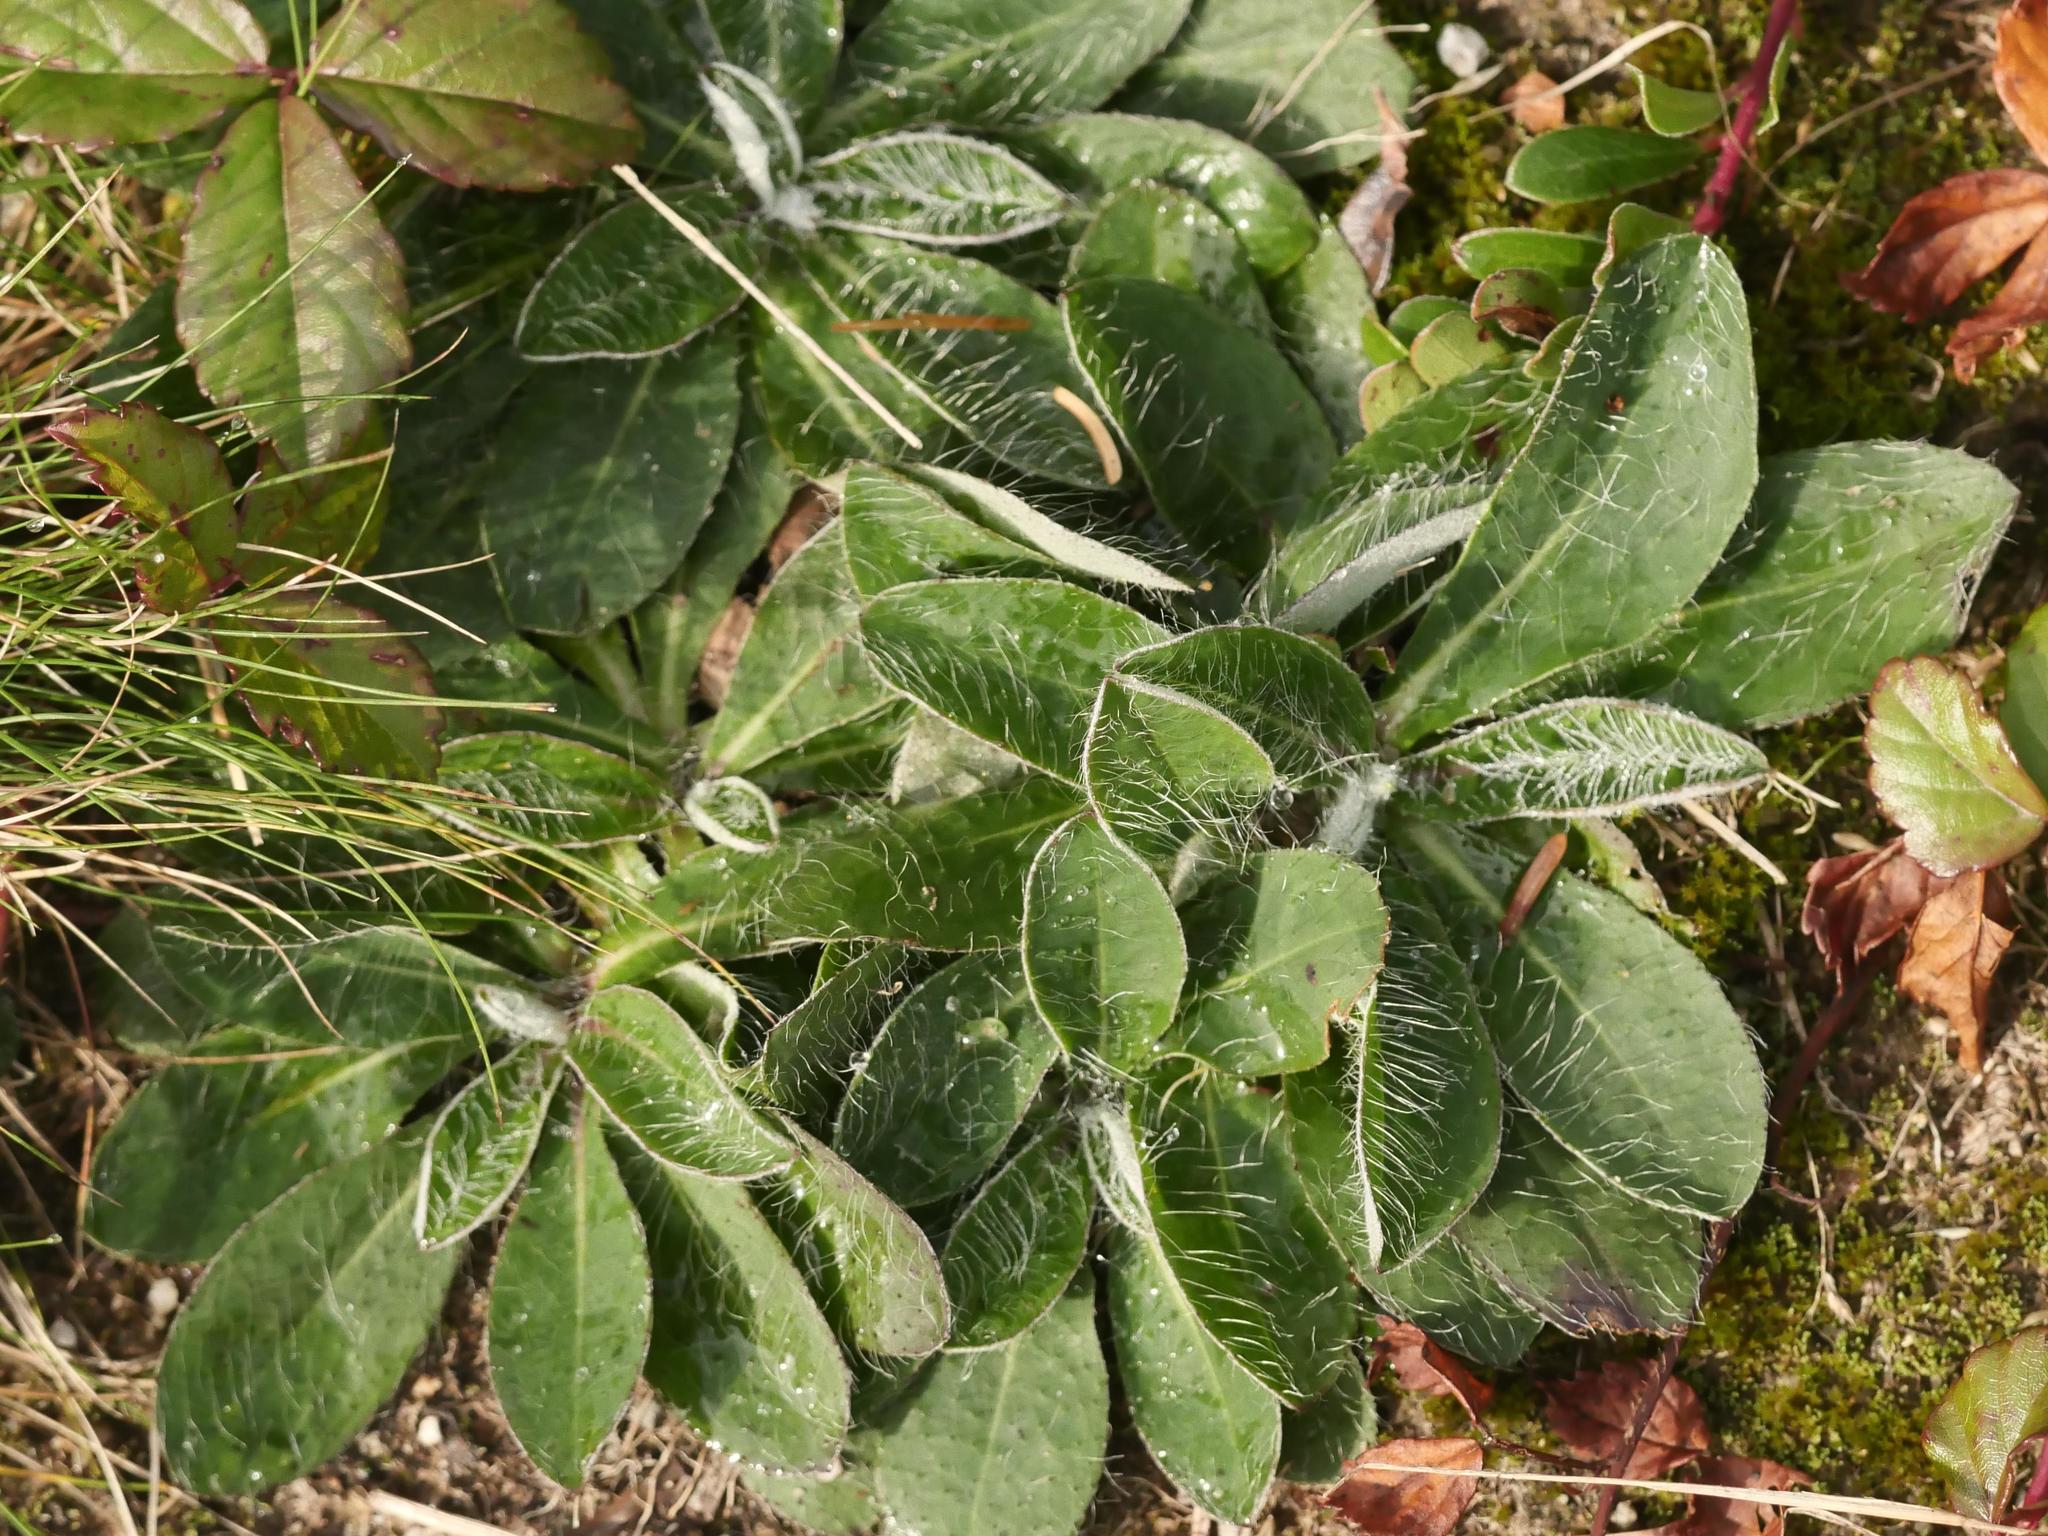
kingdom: Plantae
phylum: Tracheophyta
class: Magnoliopsida
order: Asterales
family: Asteraceae
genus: Pilosella
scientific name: Pilosella officinarum
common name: Mouse-ear hawkweed
